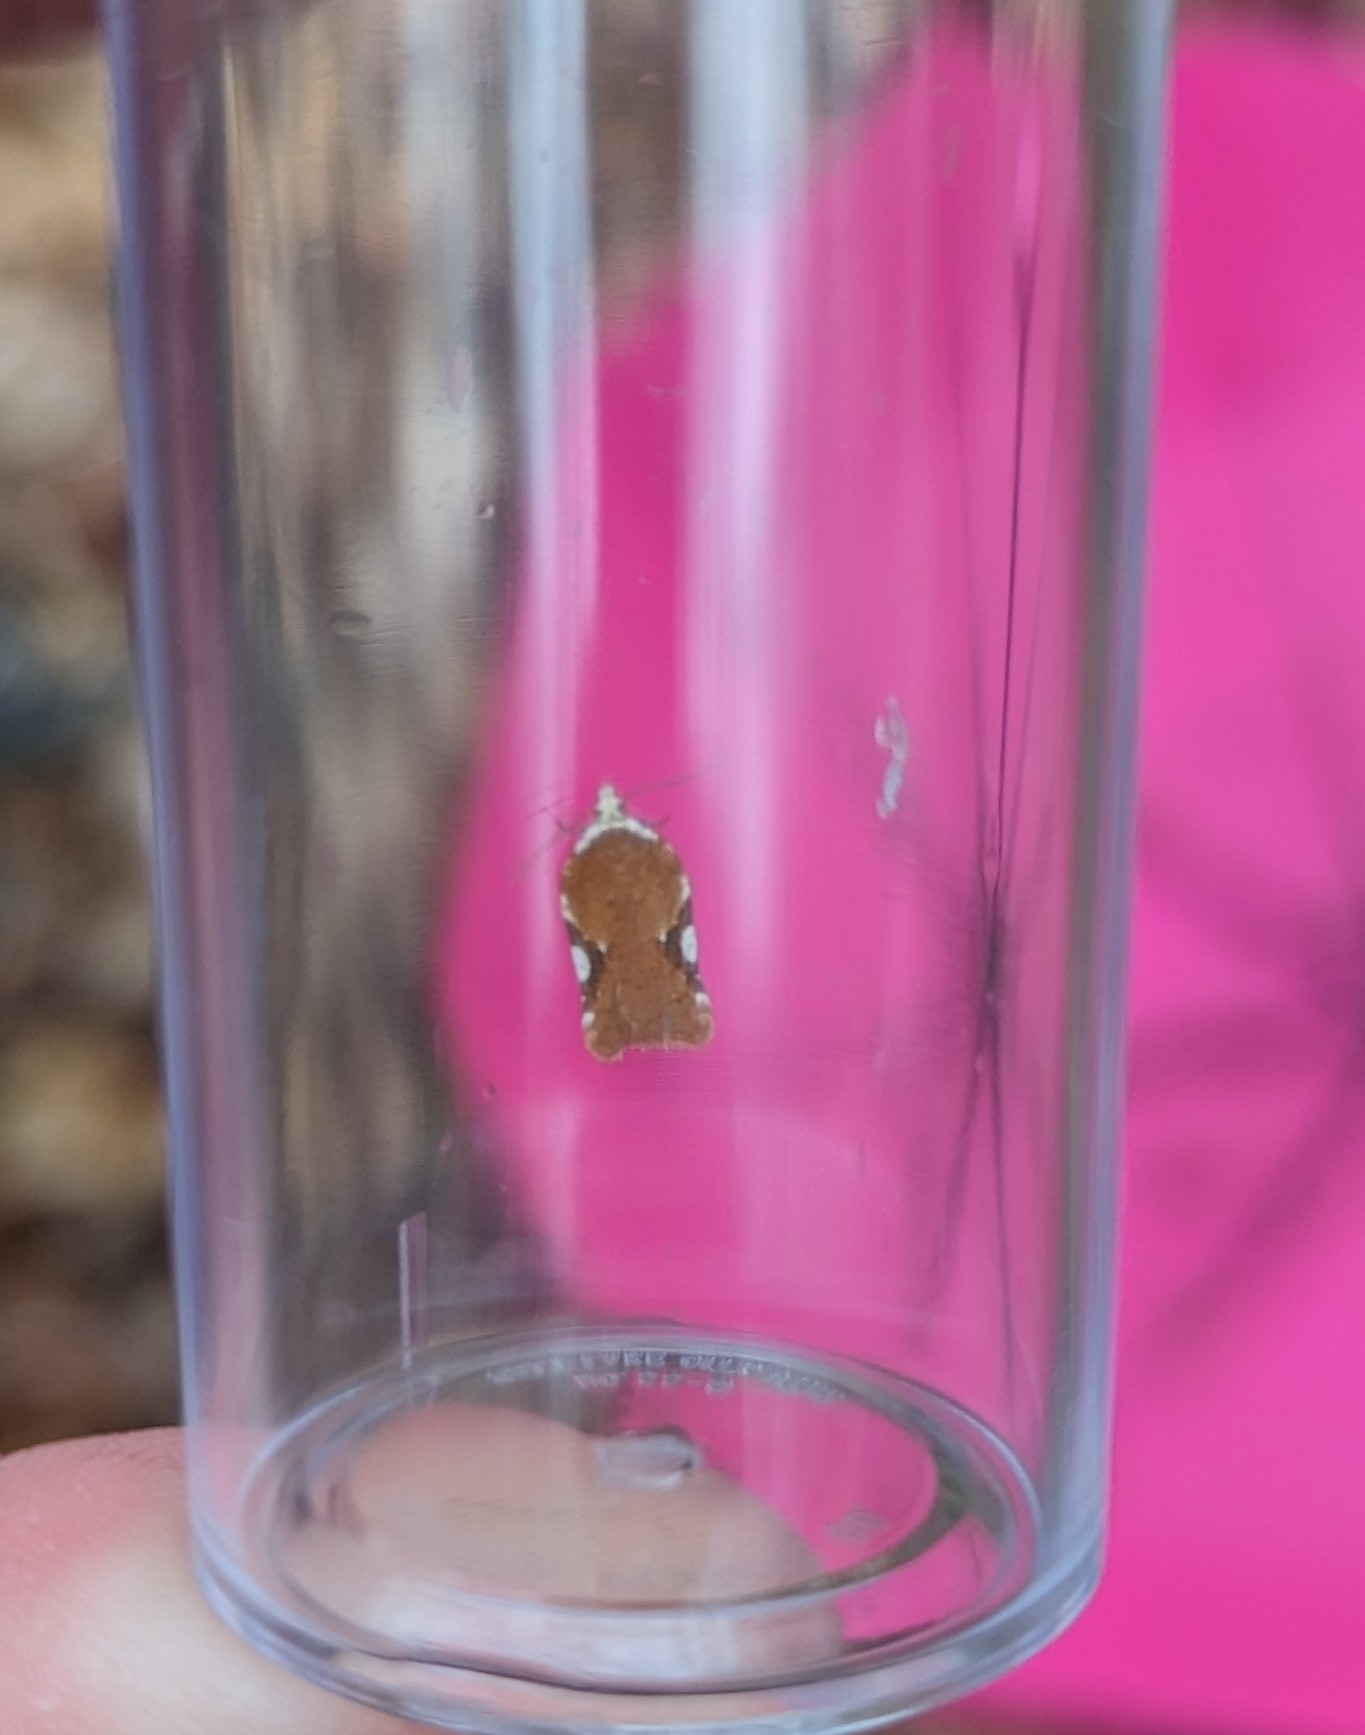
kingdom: Animalia
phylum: Arthropoda
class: Insecta
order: Lepidoptera
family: Tortricidae
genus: Acleris
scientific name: Acleris cervinana
